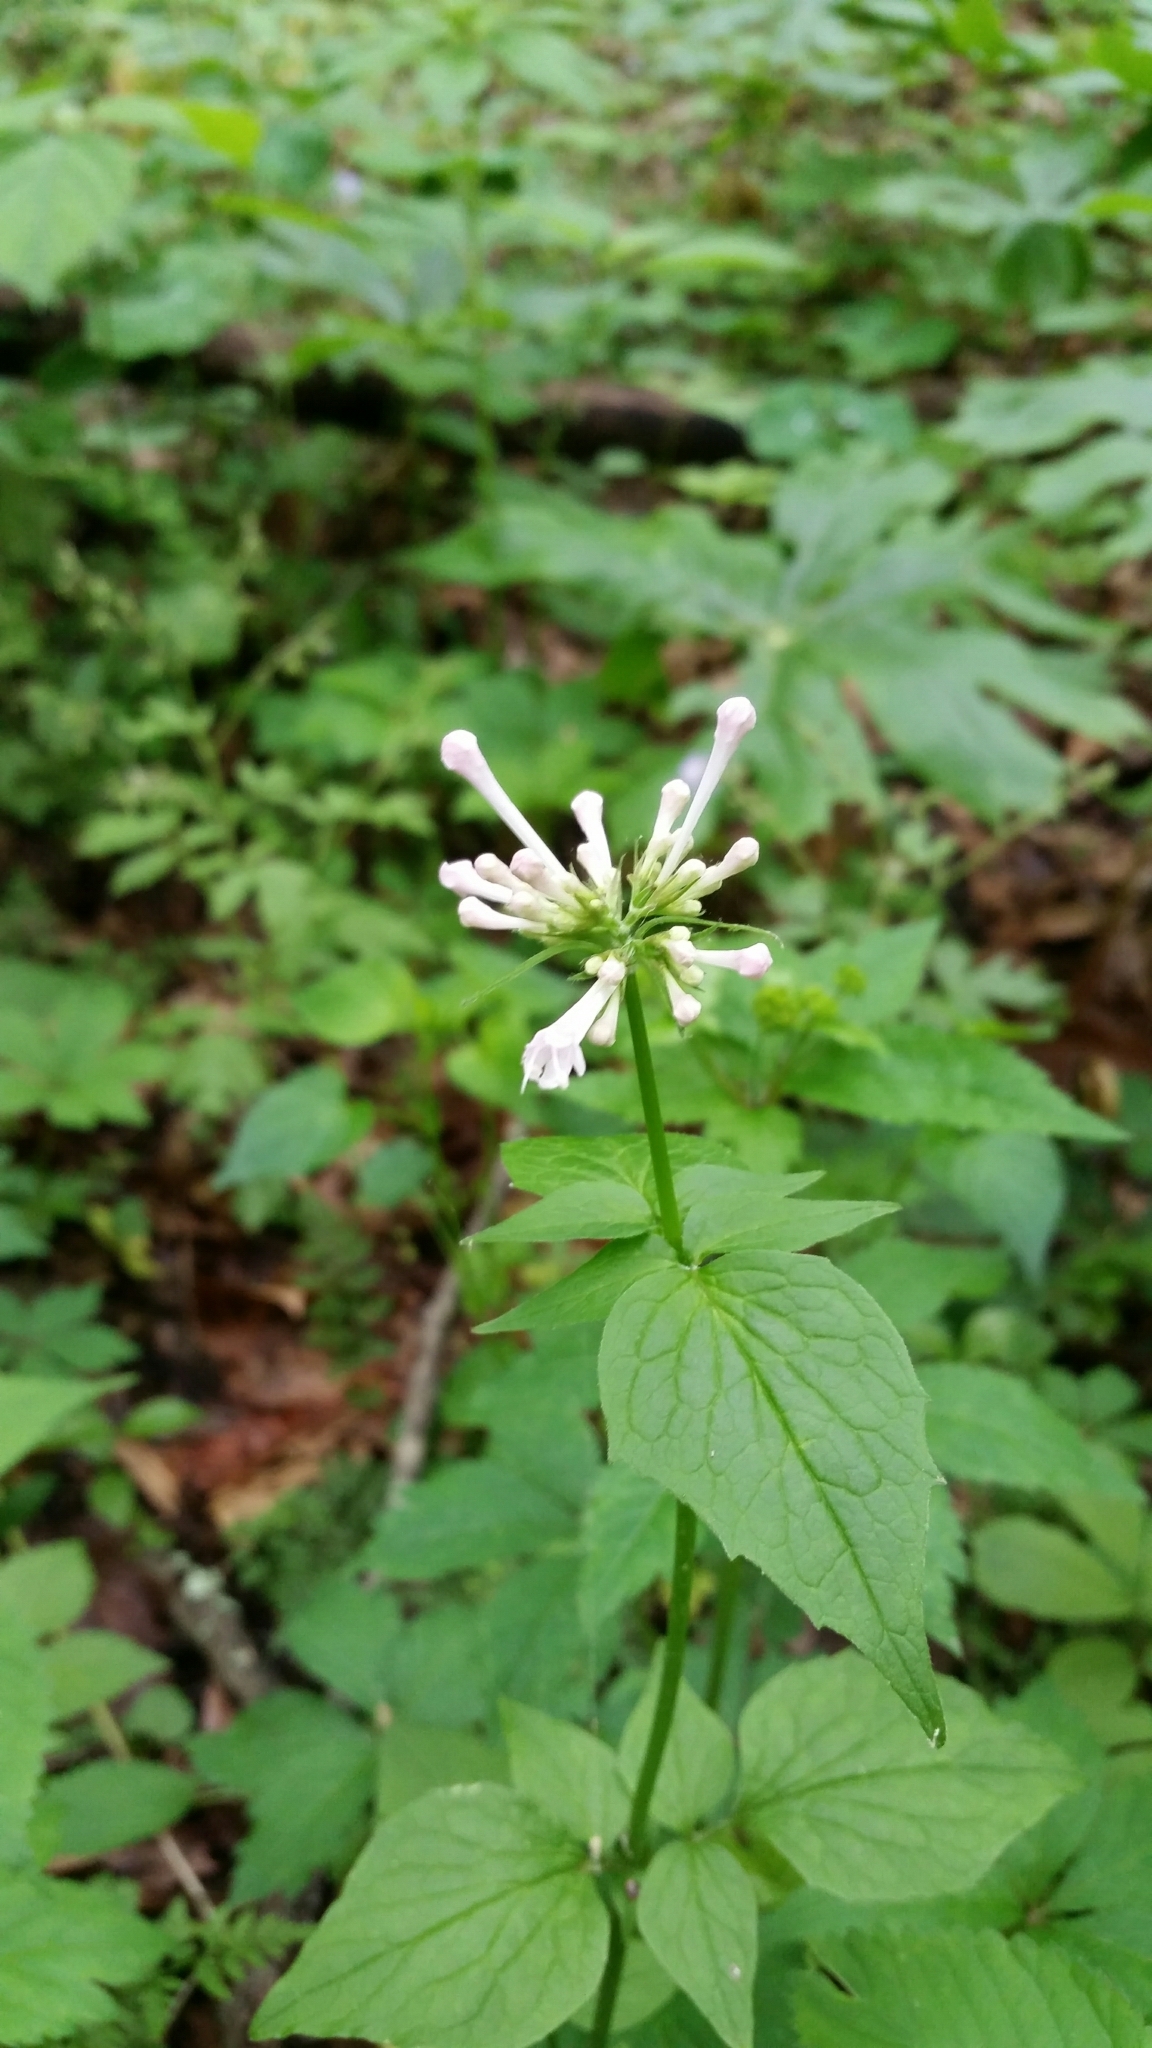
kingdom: Plantae
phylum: Tracheophyta
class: Magnoliopsida
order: Dipsacales
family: Caprifoliaceae
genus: Valeriana
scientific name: Valeriana pauciflora
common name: Long-tube valeriana
